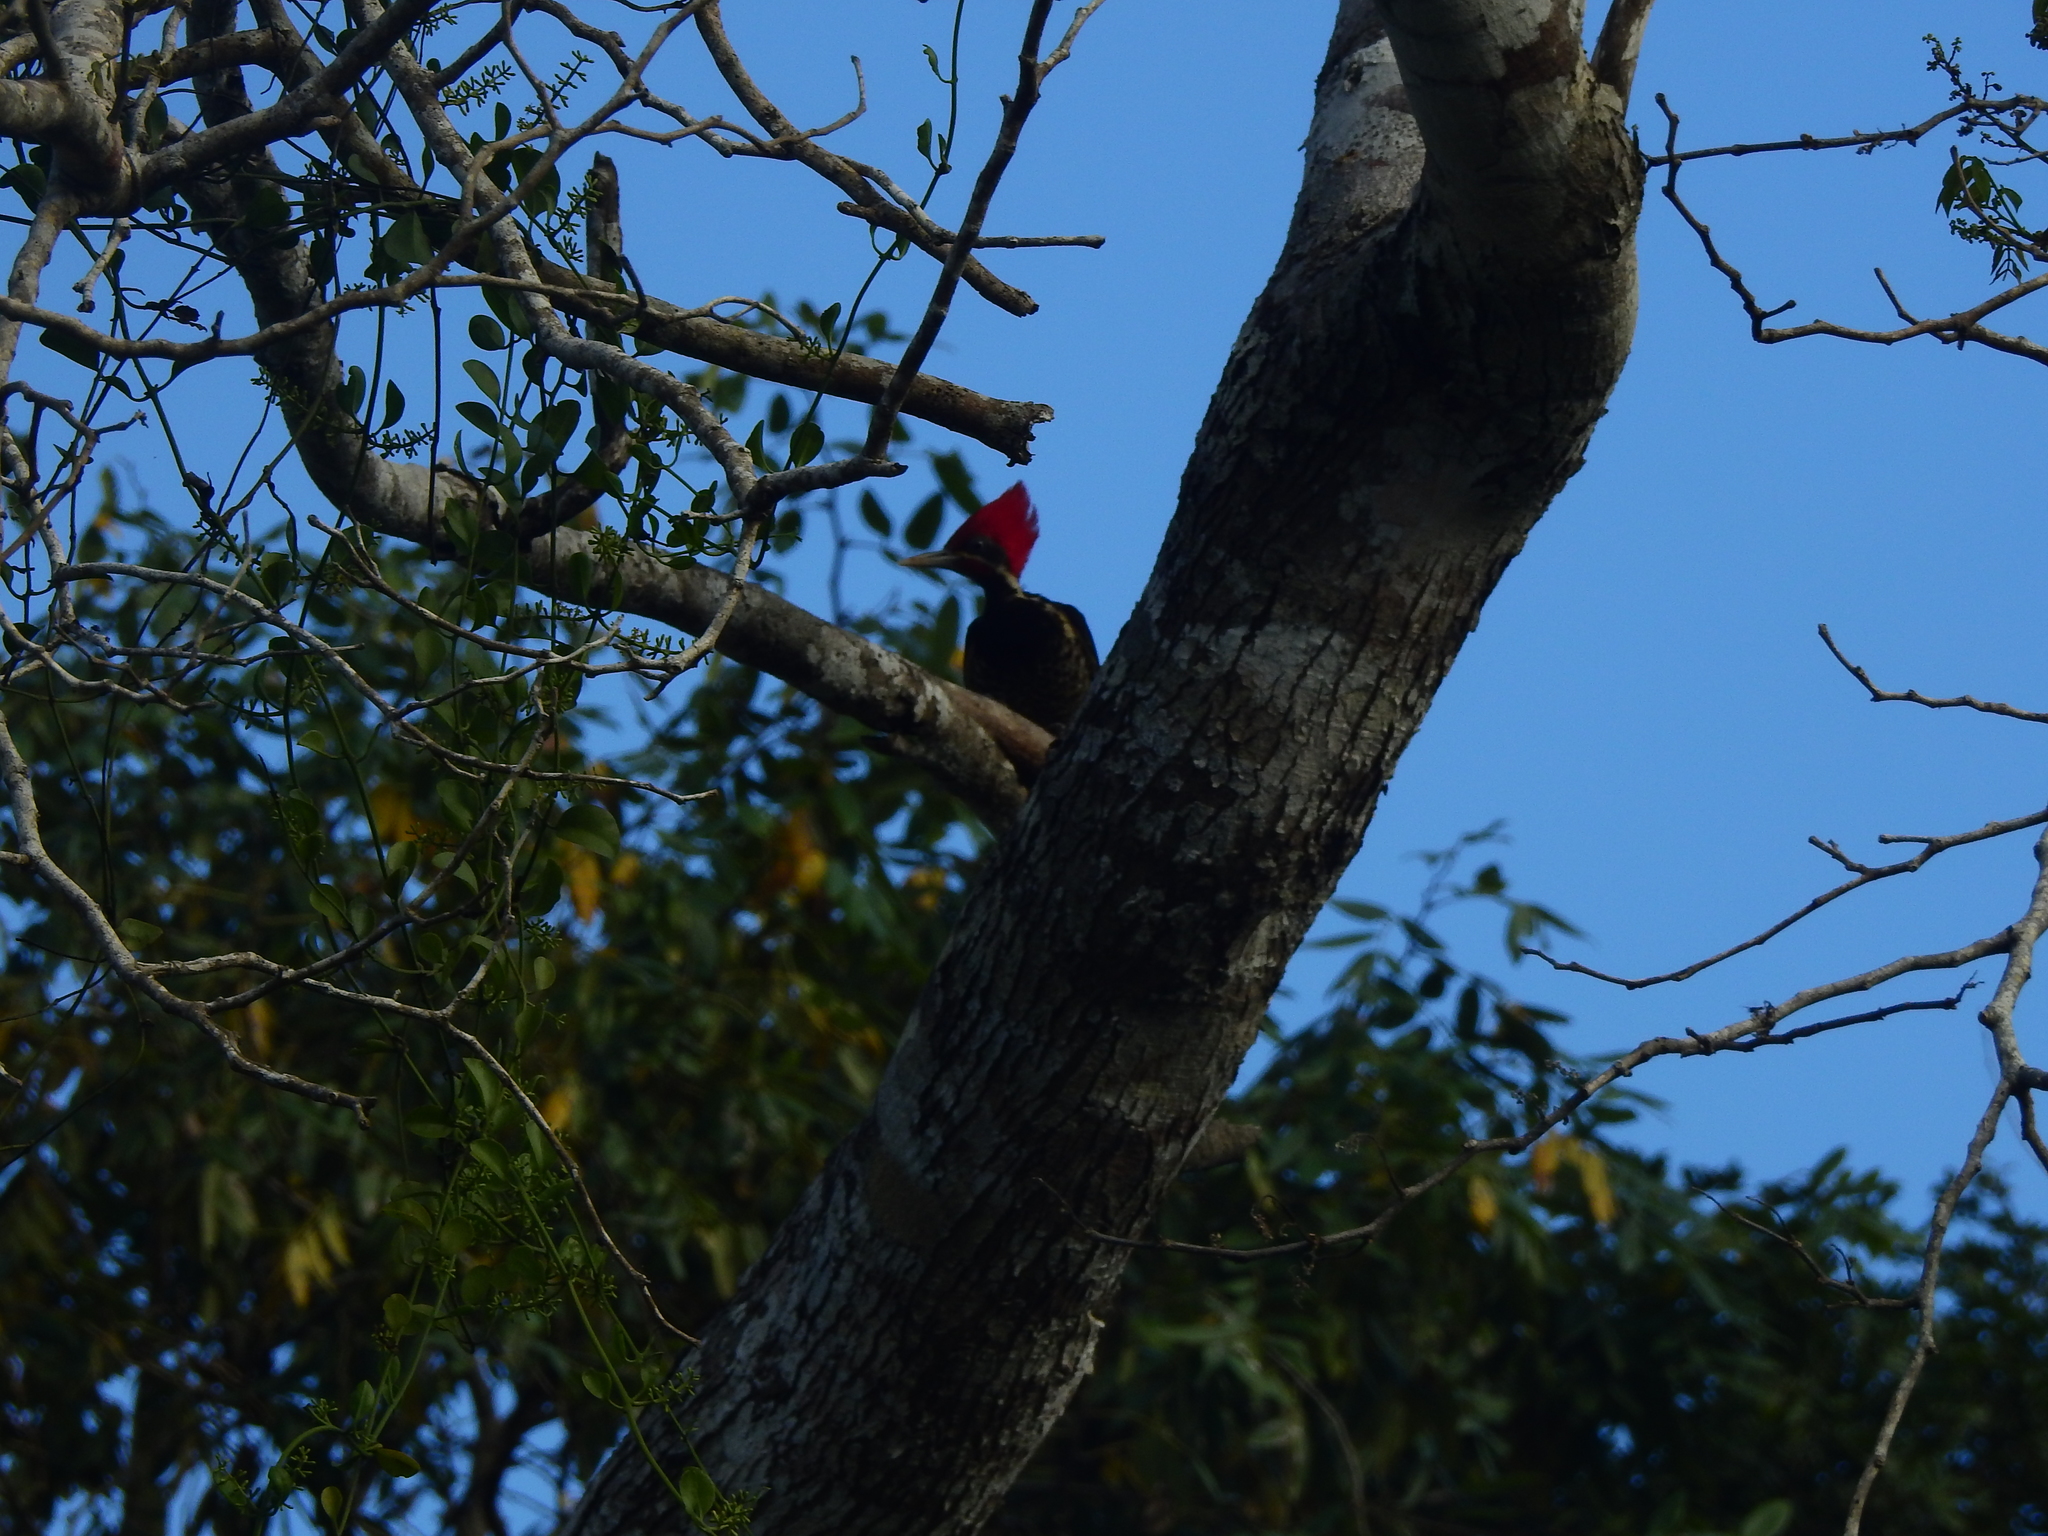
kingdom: Animalia
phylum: Chordata
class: Aves
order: Piciformes
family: Picidae
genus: Dryocopus
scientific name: Dryocopus lineatus
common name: Lineated woodpecker
